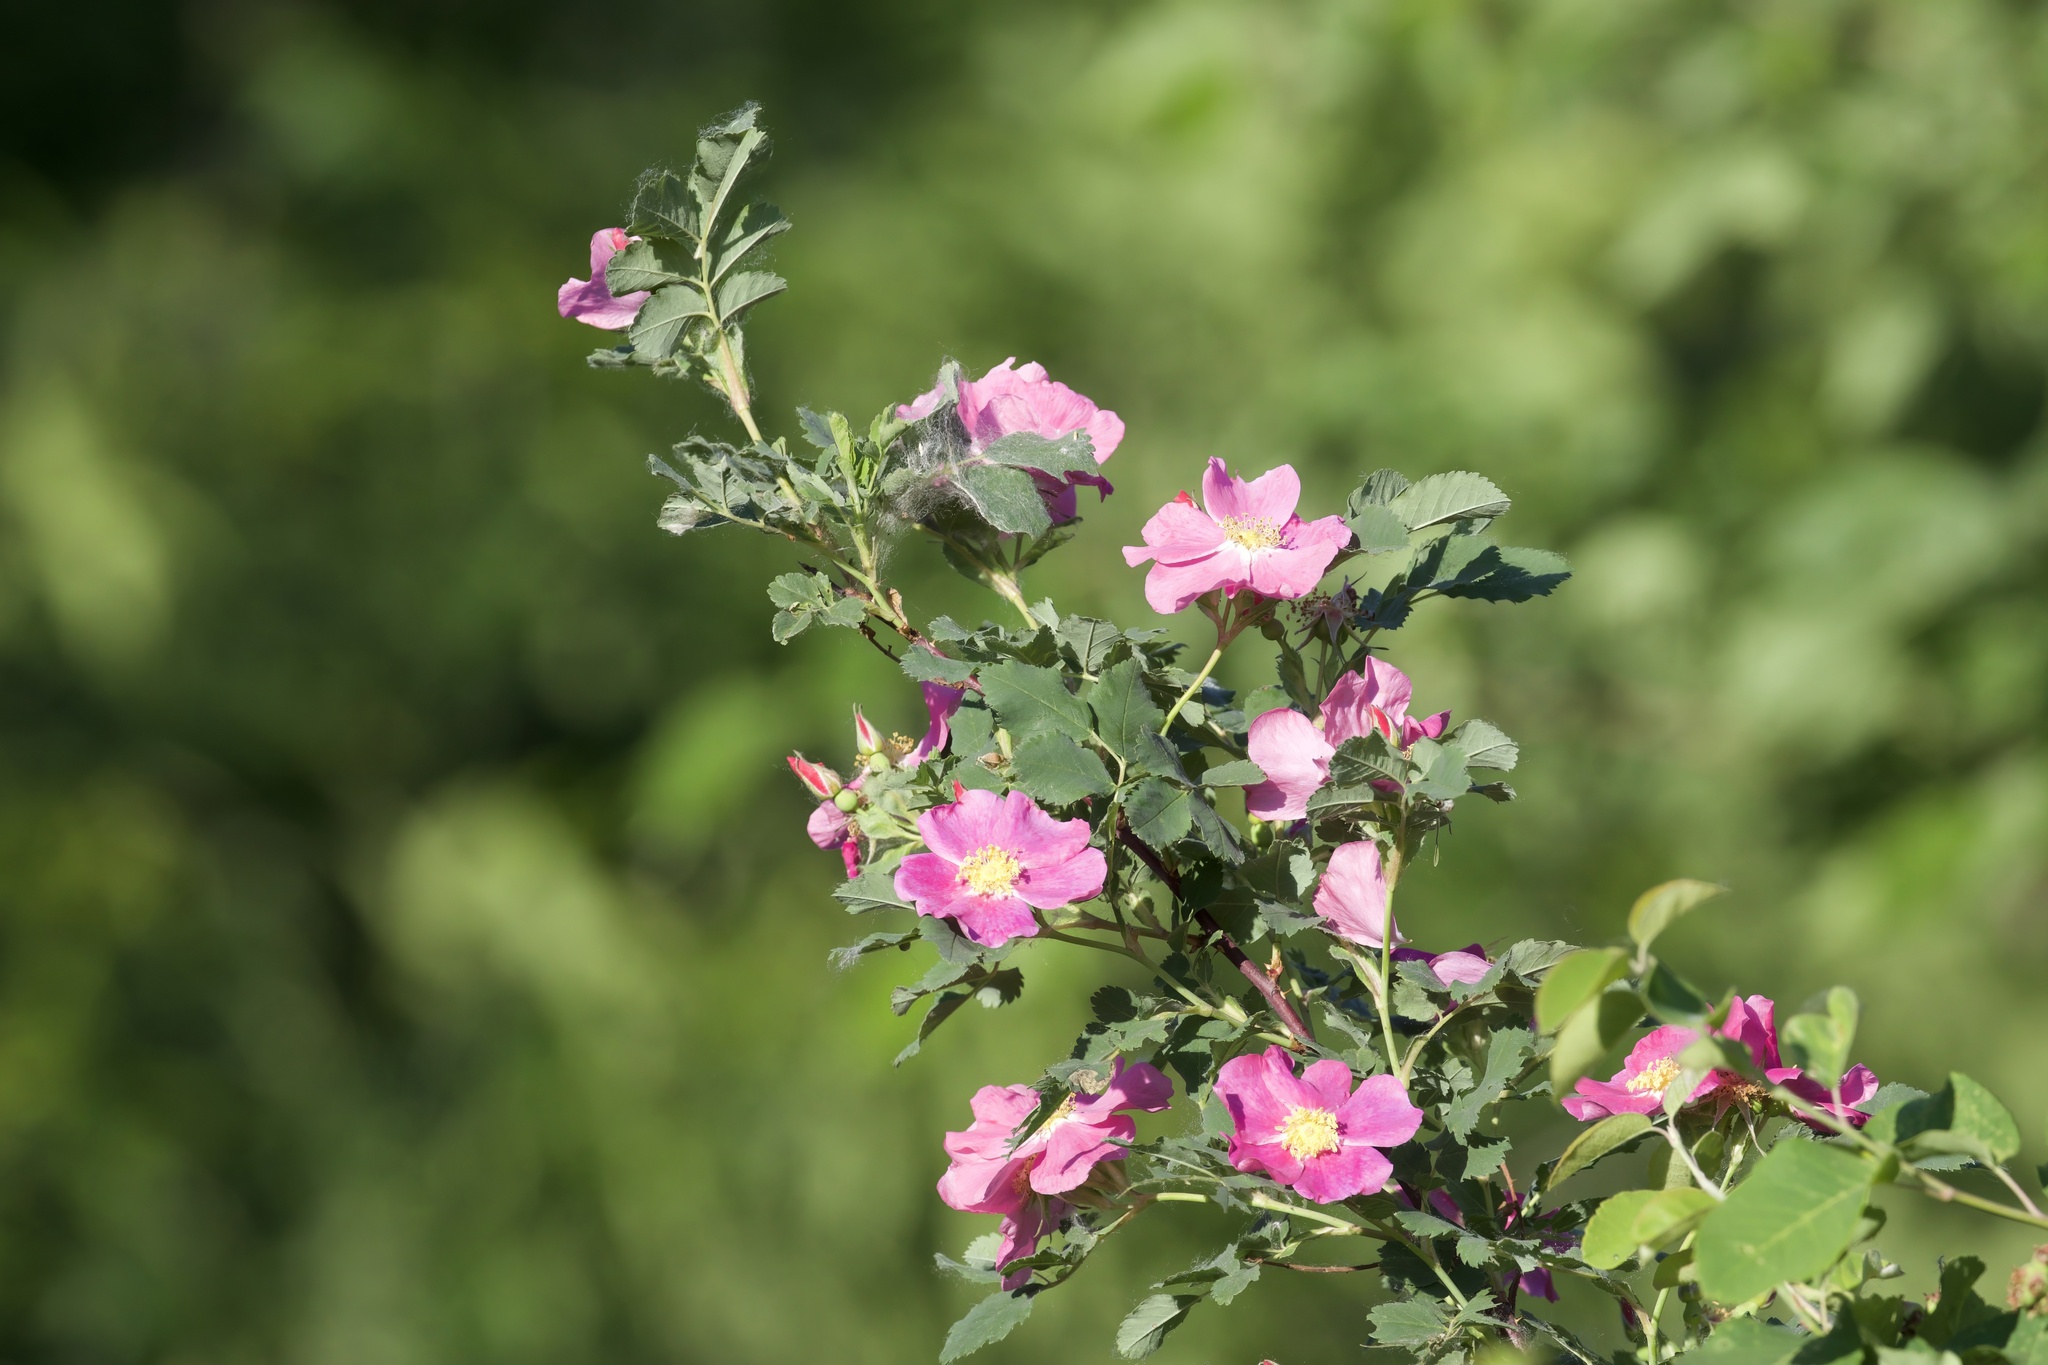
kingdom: Plantae
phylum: Tracheophyta
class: Magnoliopsida
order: Rosales
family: Rosaceae
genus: Rosa
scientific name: Rosa arkansana
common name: Prairie rose
